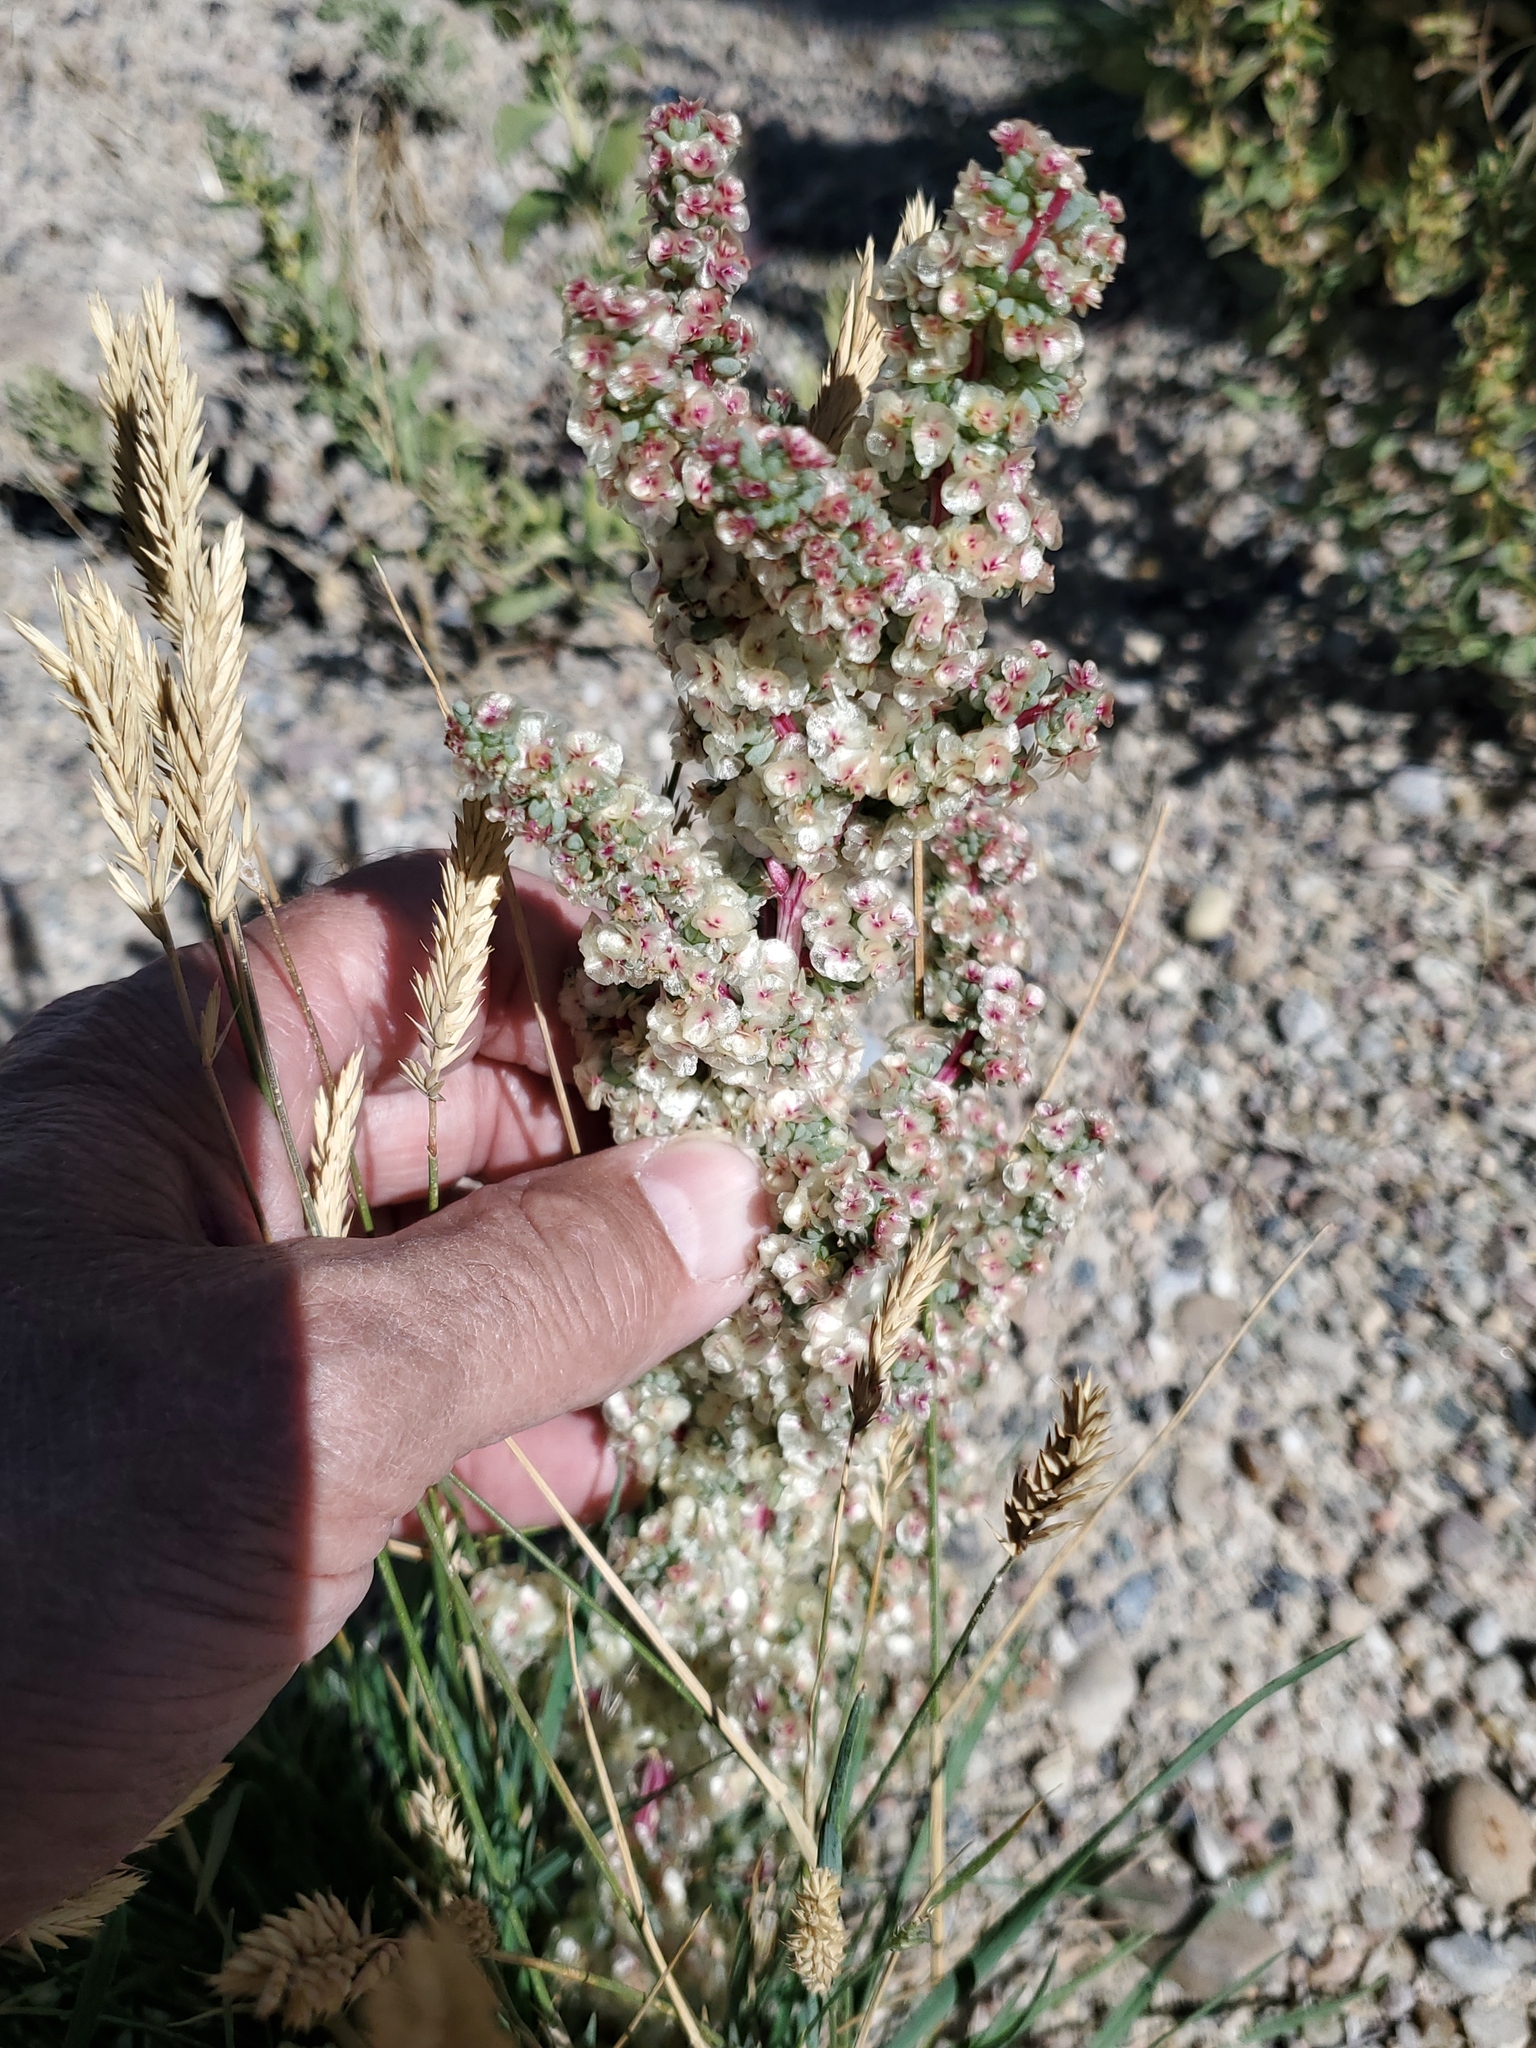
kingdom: Plantae
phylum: Tracheophyta
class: Magnoliopsida
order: Caryophyllales
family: Amaranthaceae
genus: Halogeton
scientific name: Halogeton glomeratus
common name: Saltlover
